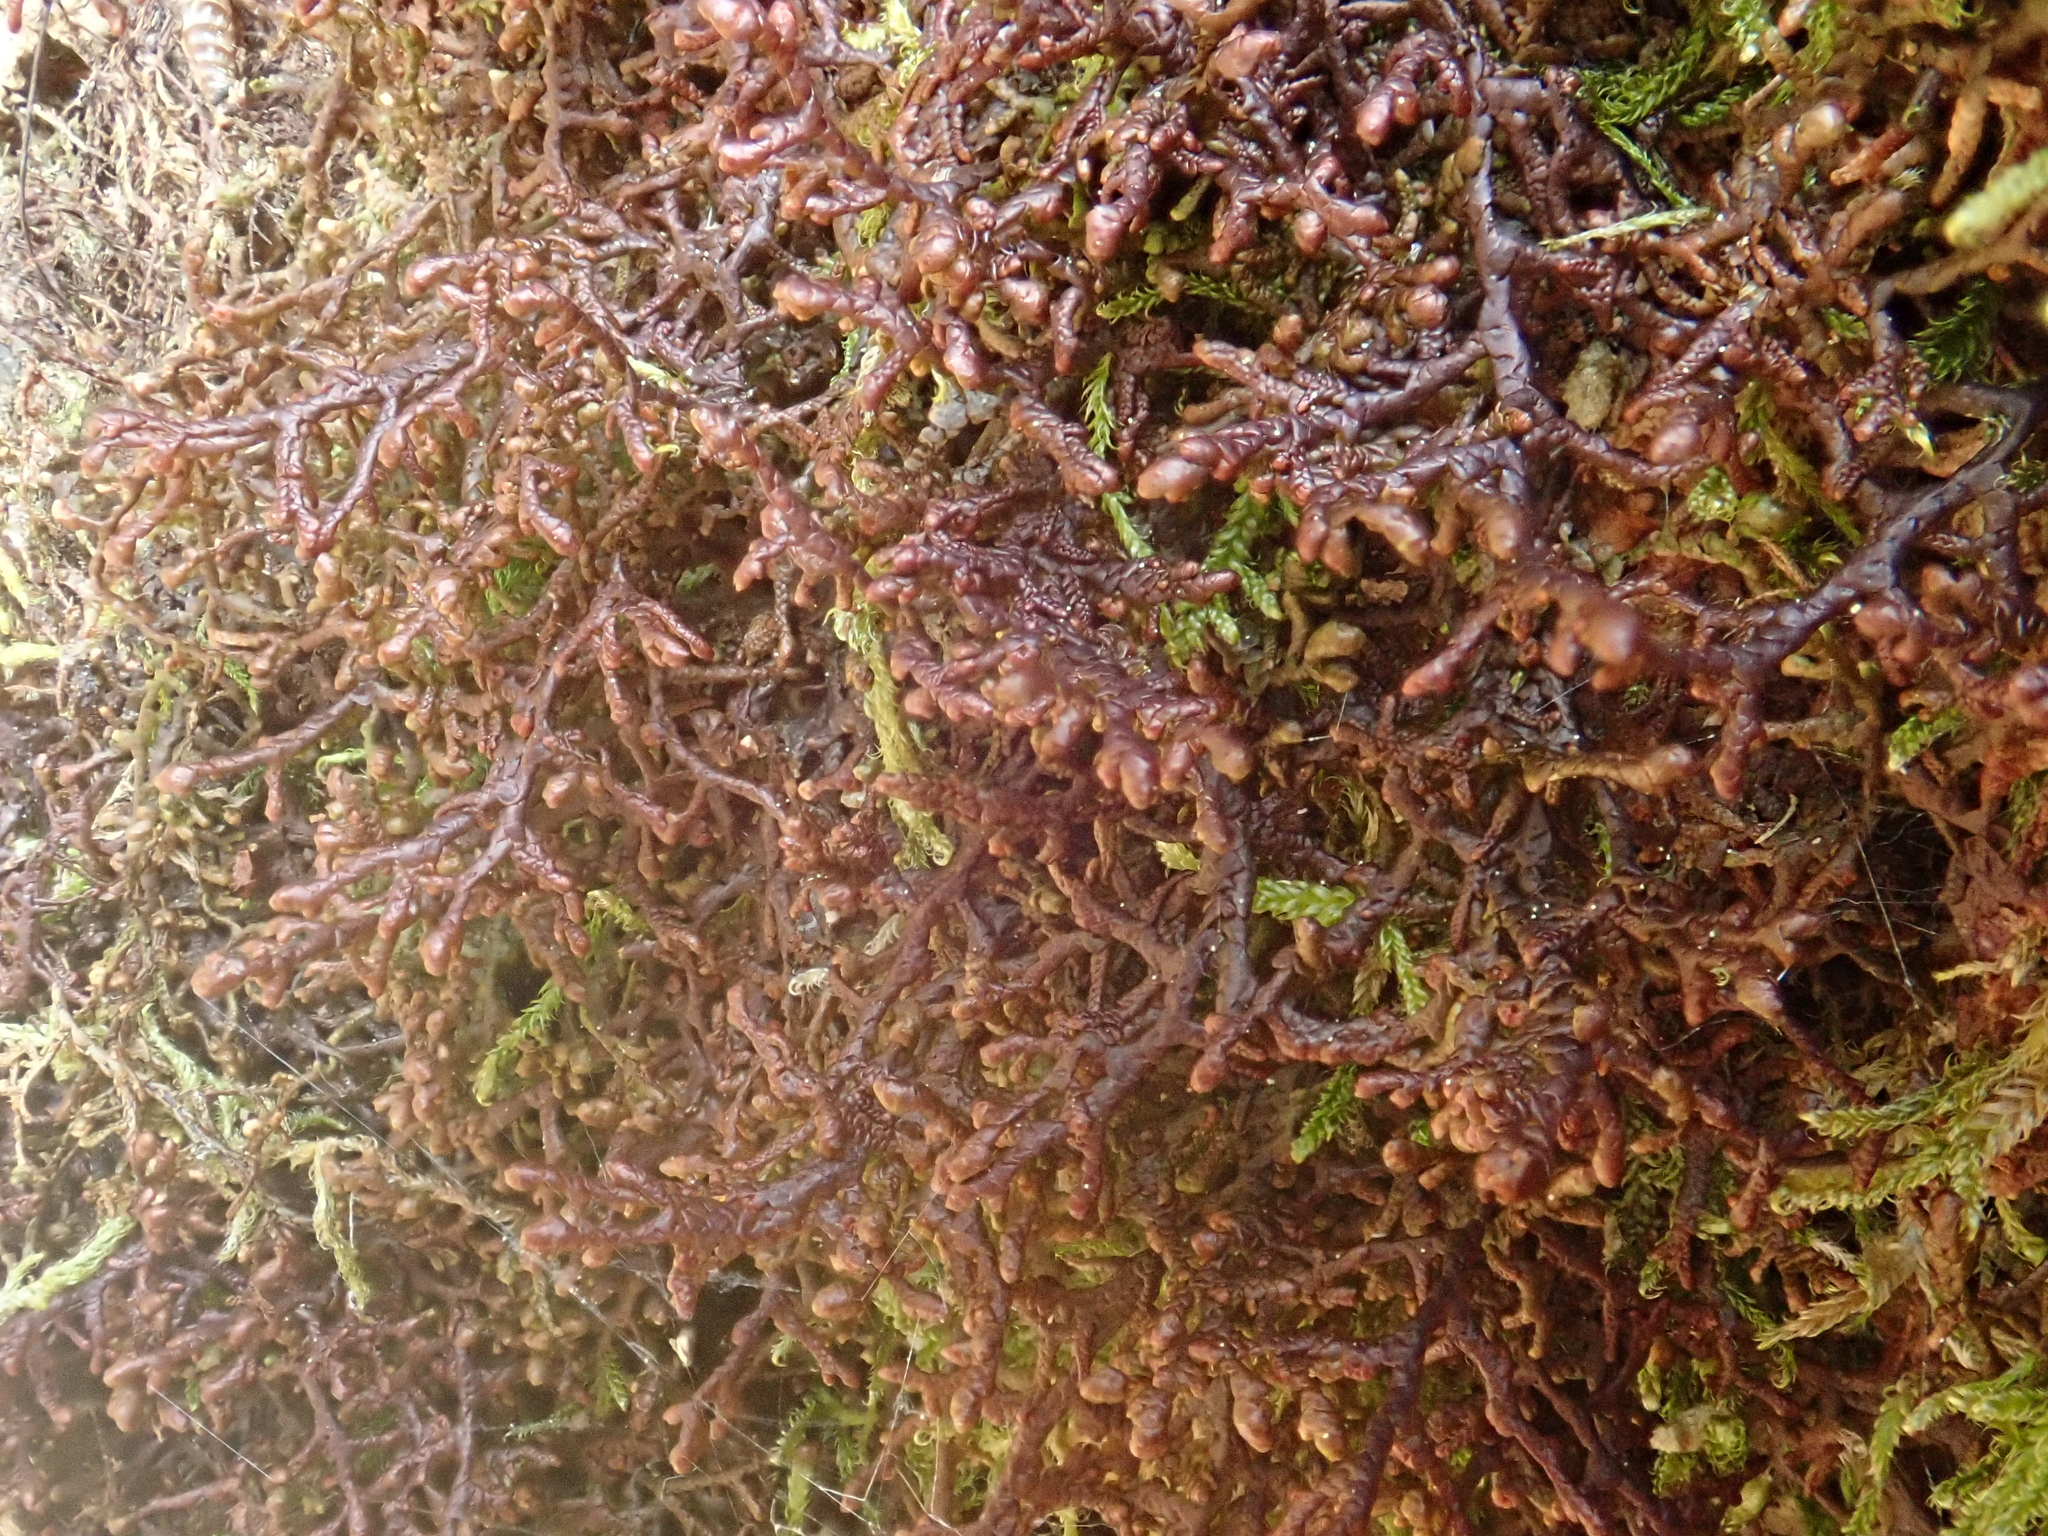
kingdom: Plantae
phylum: Marchantiophyta
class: Jungermanniopsida
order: Porellales
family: Frullaniaceae
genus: Frullania
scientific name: Frullania tamarisci
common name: Tamarisk scalewort
